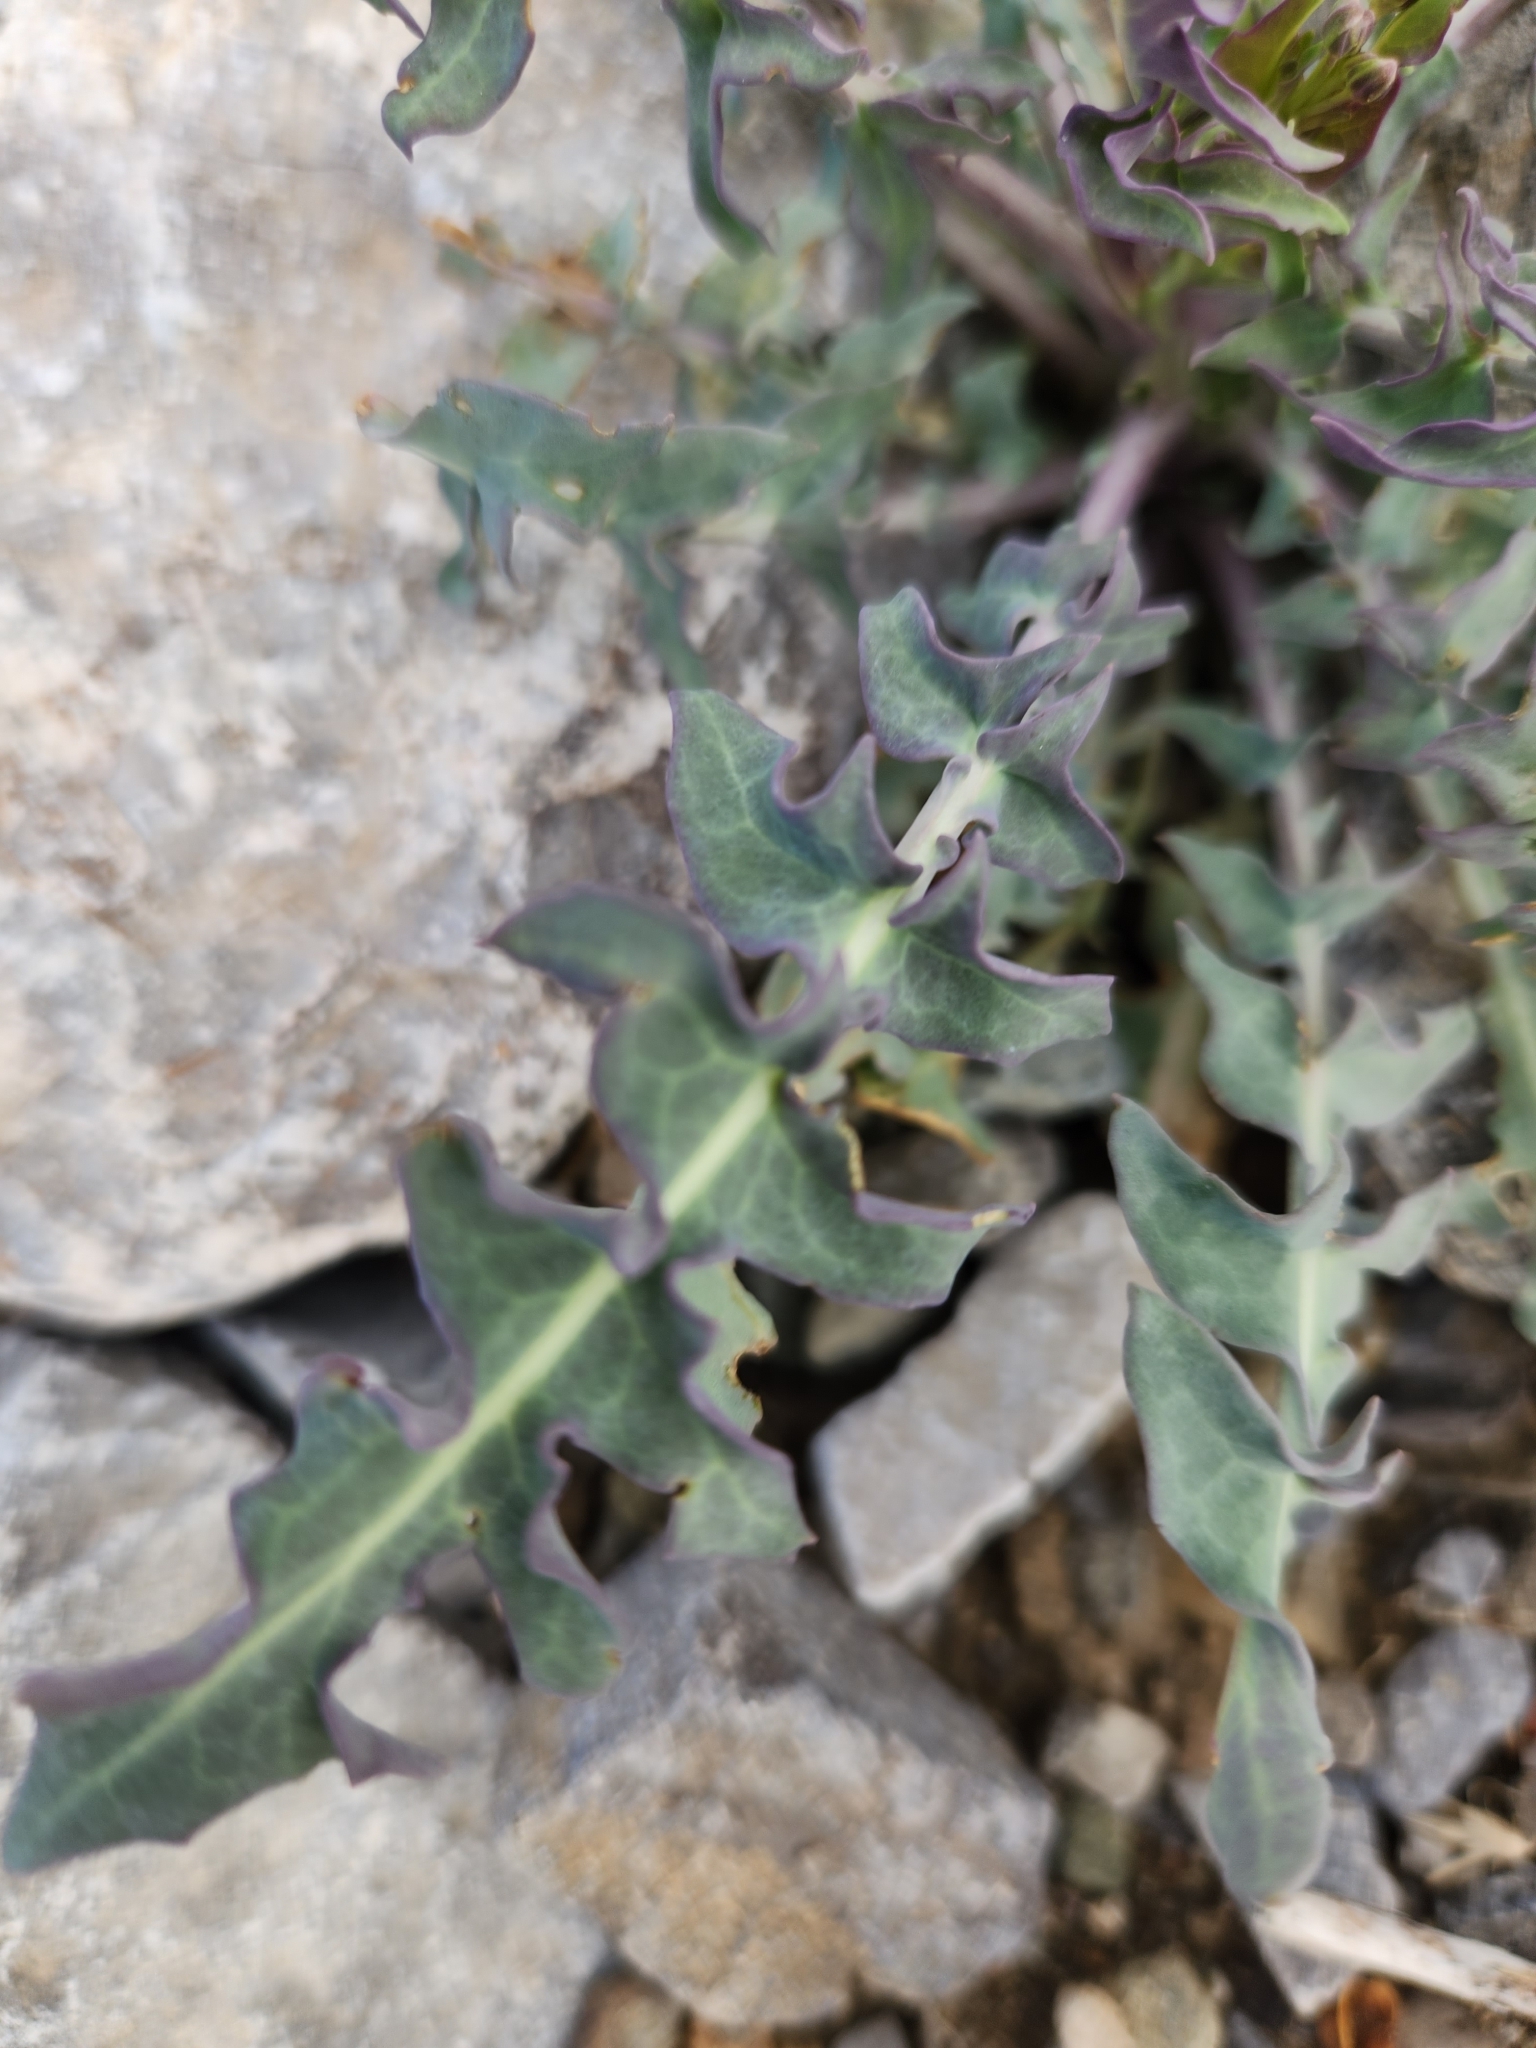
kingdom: Plantae
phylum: Tracheophyta
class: Magnoliopsida
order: Brassicales
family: Brassicaceae
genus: Streptanthus
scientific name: Streptanthus carinatus
